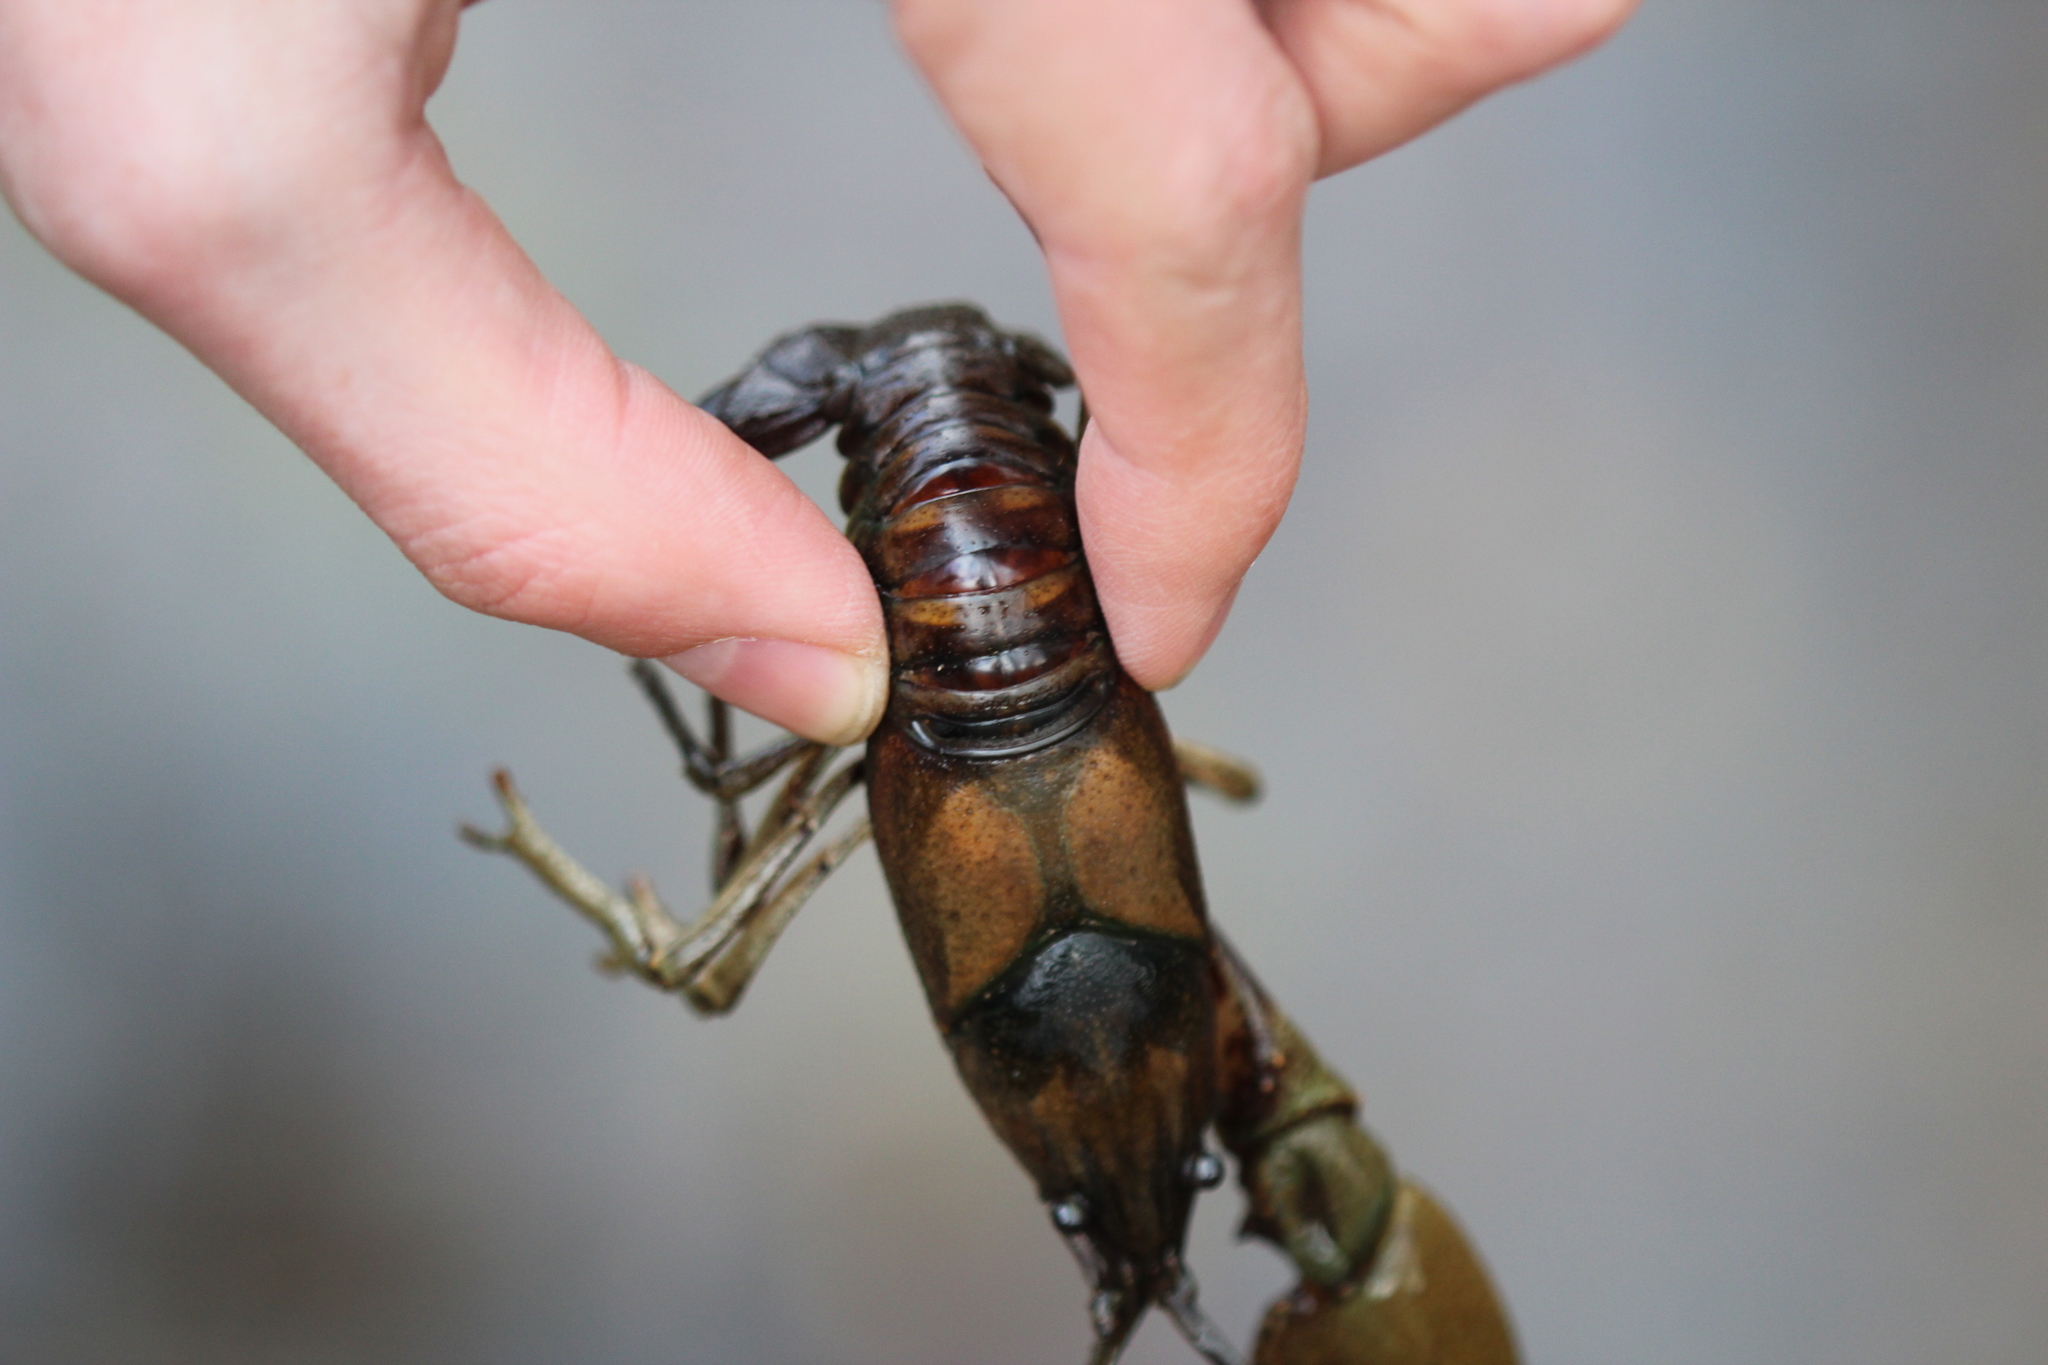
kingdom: Animalia
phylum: Arthropoda
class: Malacostraca
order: Decapoda
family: Cambaridae
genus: Faxonius
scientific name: Faxonius neglectus
